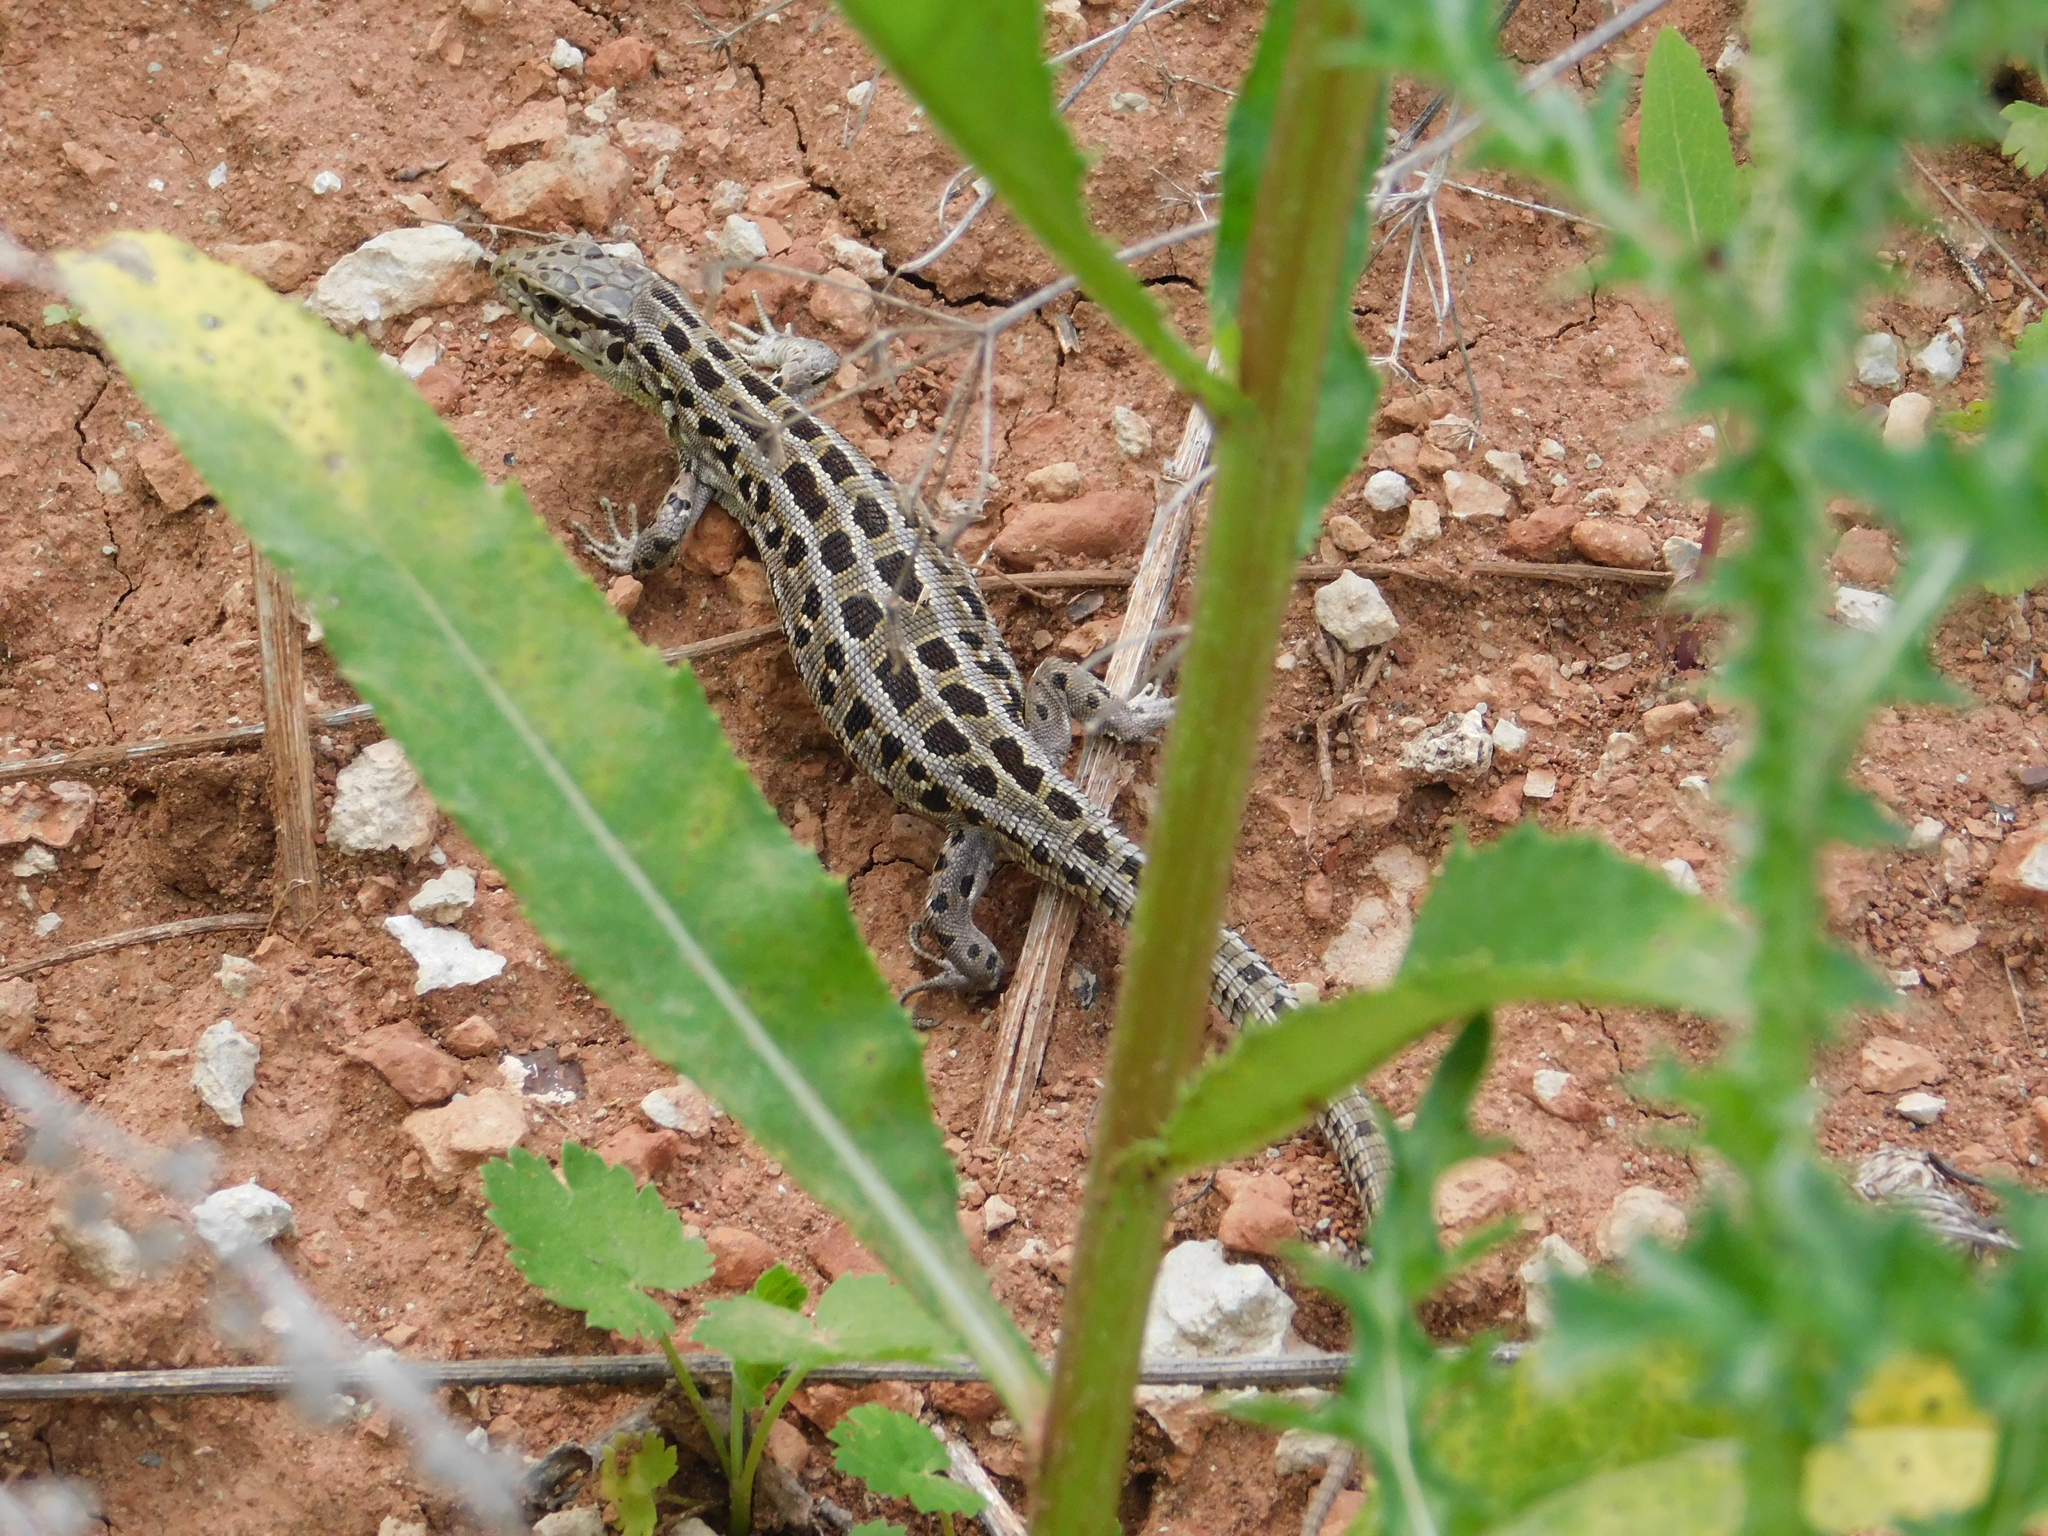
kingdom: Animalia
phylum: Chordata
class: Squamata
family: Lacertidae
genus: Lacerta
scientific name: Lacerta agilis
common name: Sand lizard
